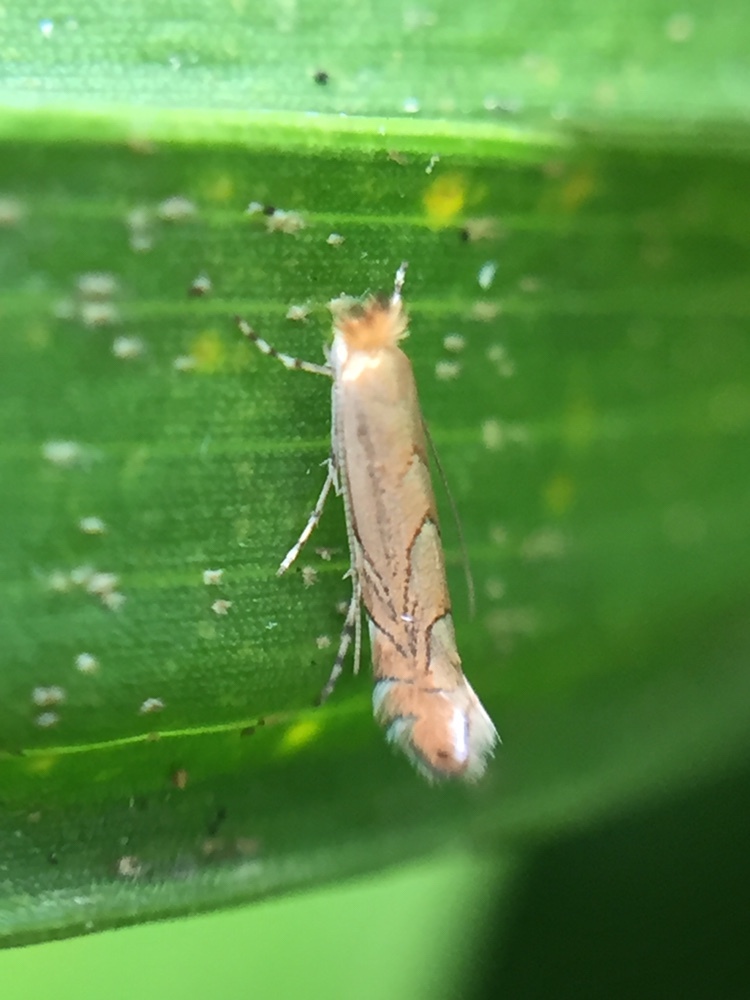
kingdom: Animalia
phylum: Arthropoda
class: Insecta
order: Lepidoptera
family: Gracillariidae
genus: Phyllonorycter
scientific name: Phyllonorycter messaniella
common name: Garden midget
